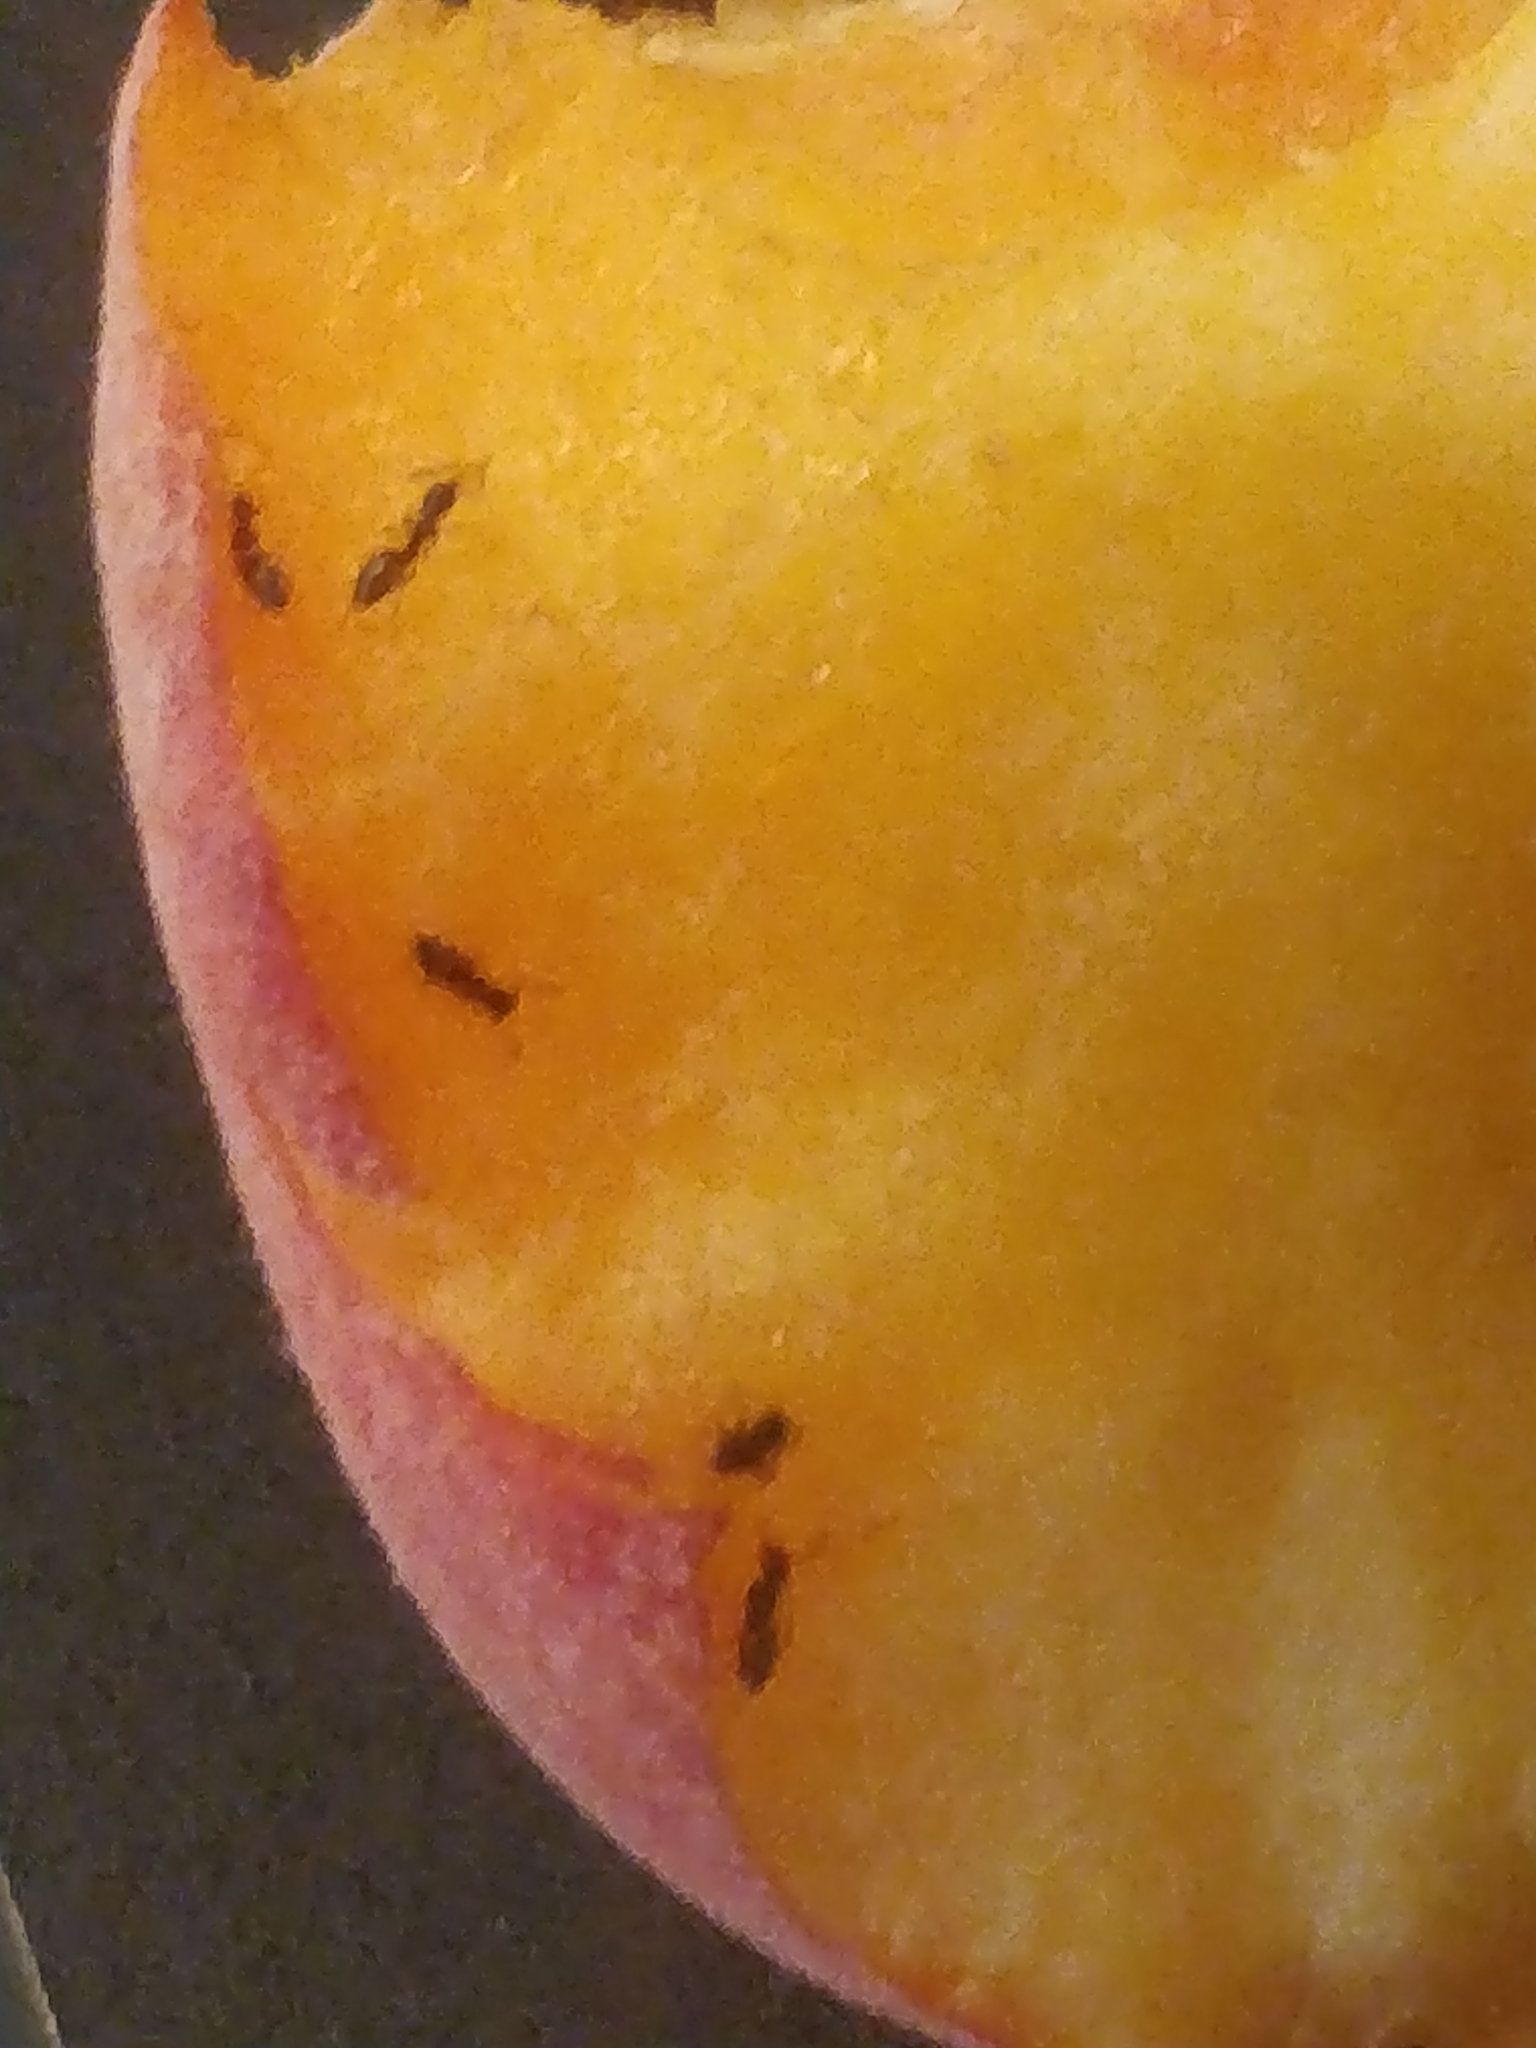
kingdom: Animalia
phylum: Arthropoda
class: Insecta
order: Hymenoptera
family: Formicidae
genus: Tapinoma
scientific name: Tapinoma sessile
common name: Odorous house ant
